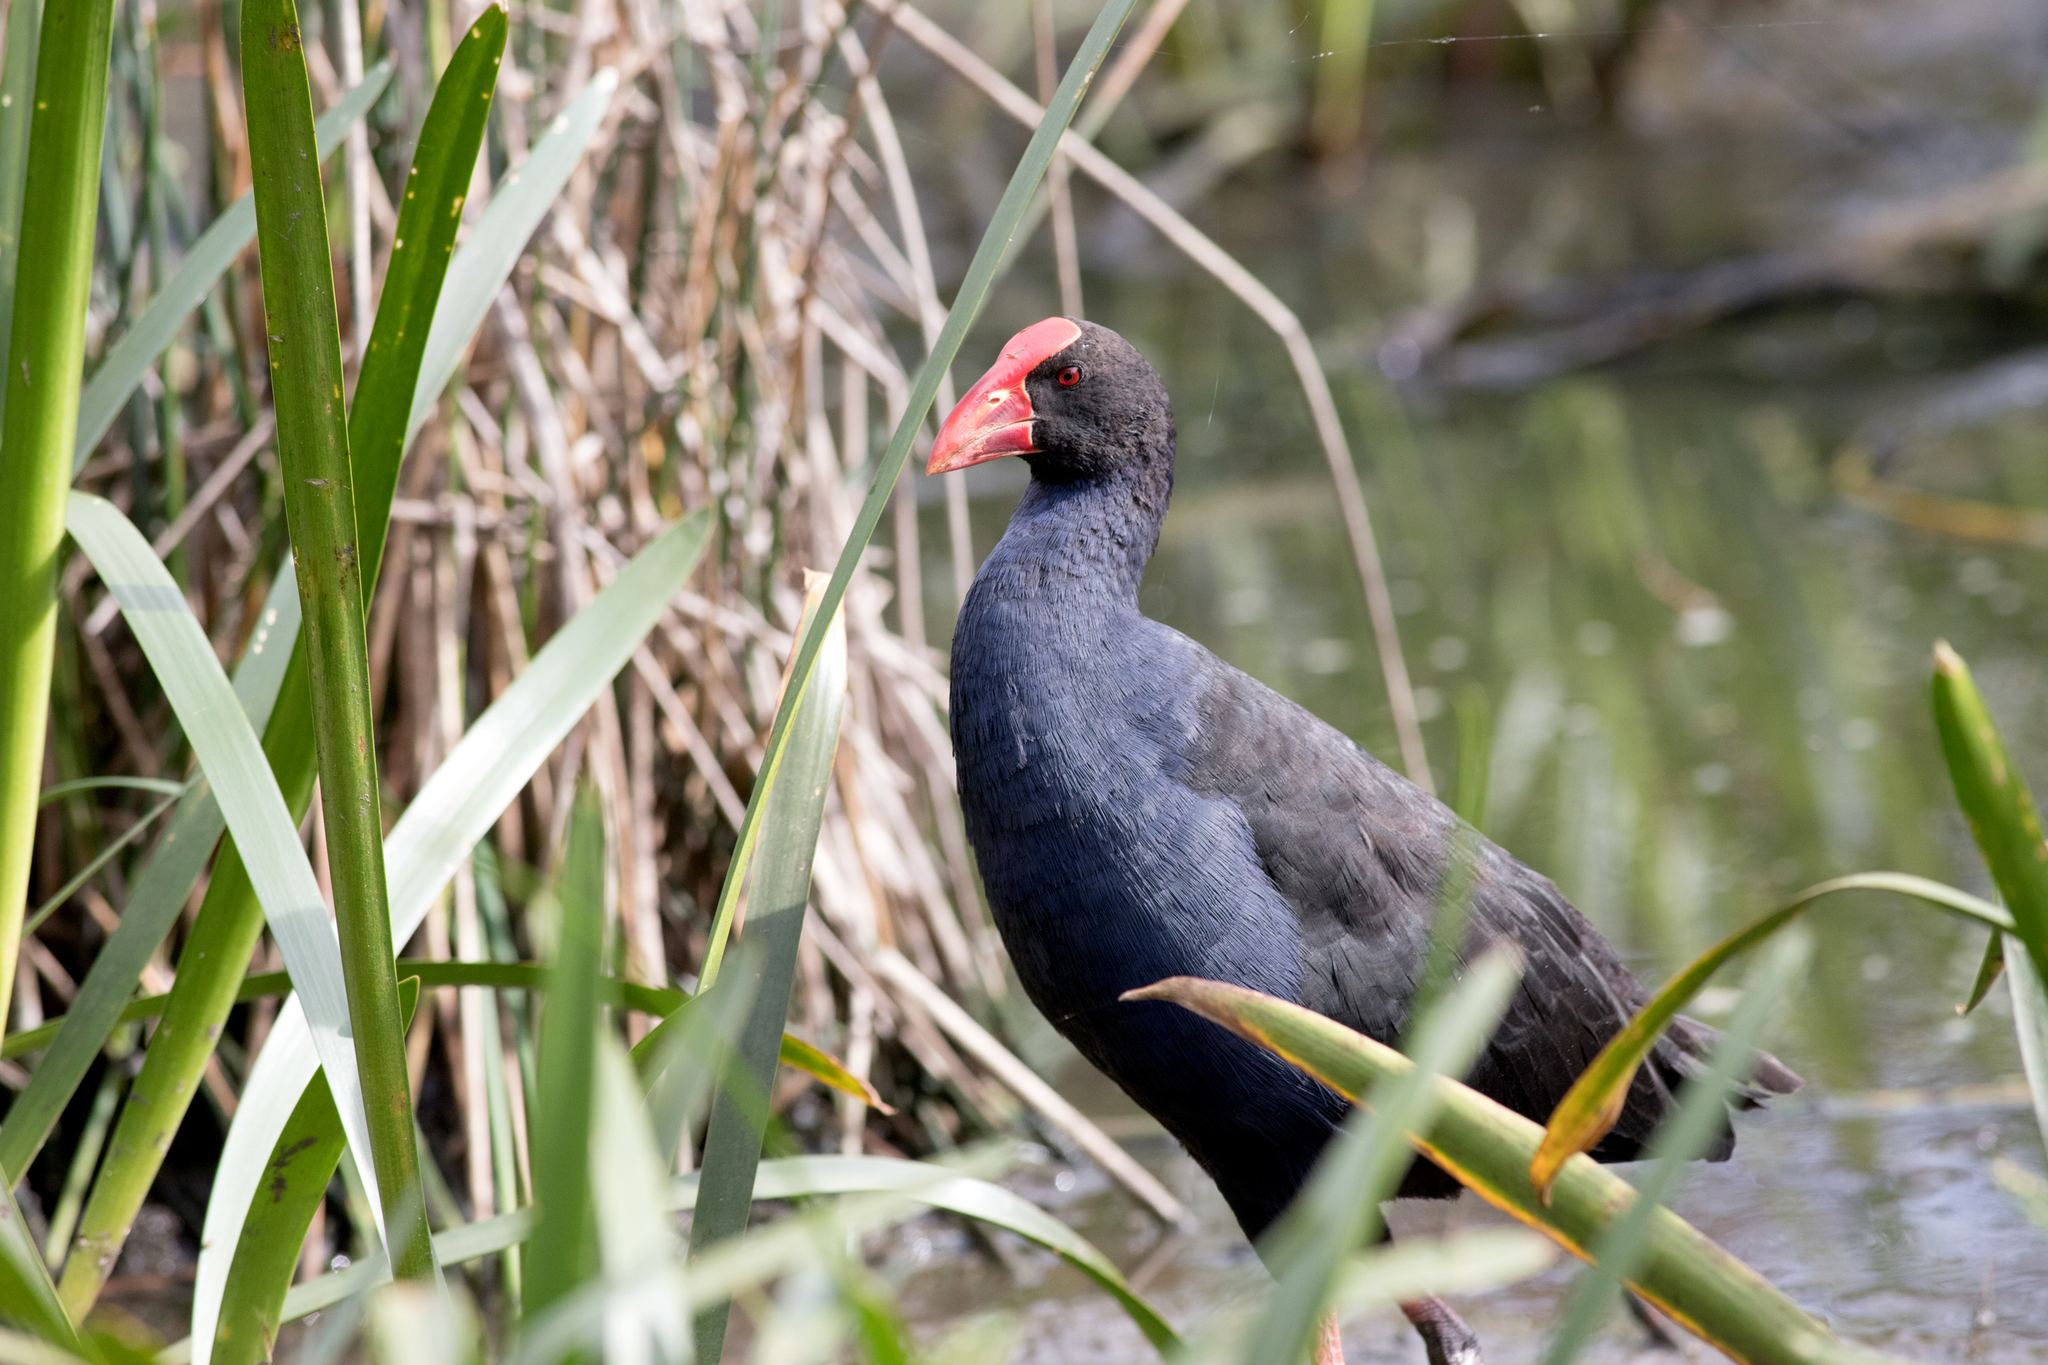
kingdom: Animalia
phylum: Chordata
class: Aves
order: Gruiformes
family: Rallidae
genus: Porphyrio
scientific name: Porphyrio melanotus
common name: Australasian swamphen
